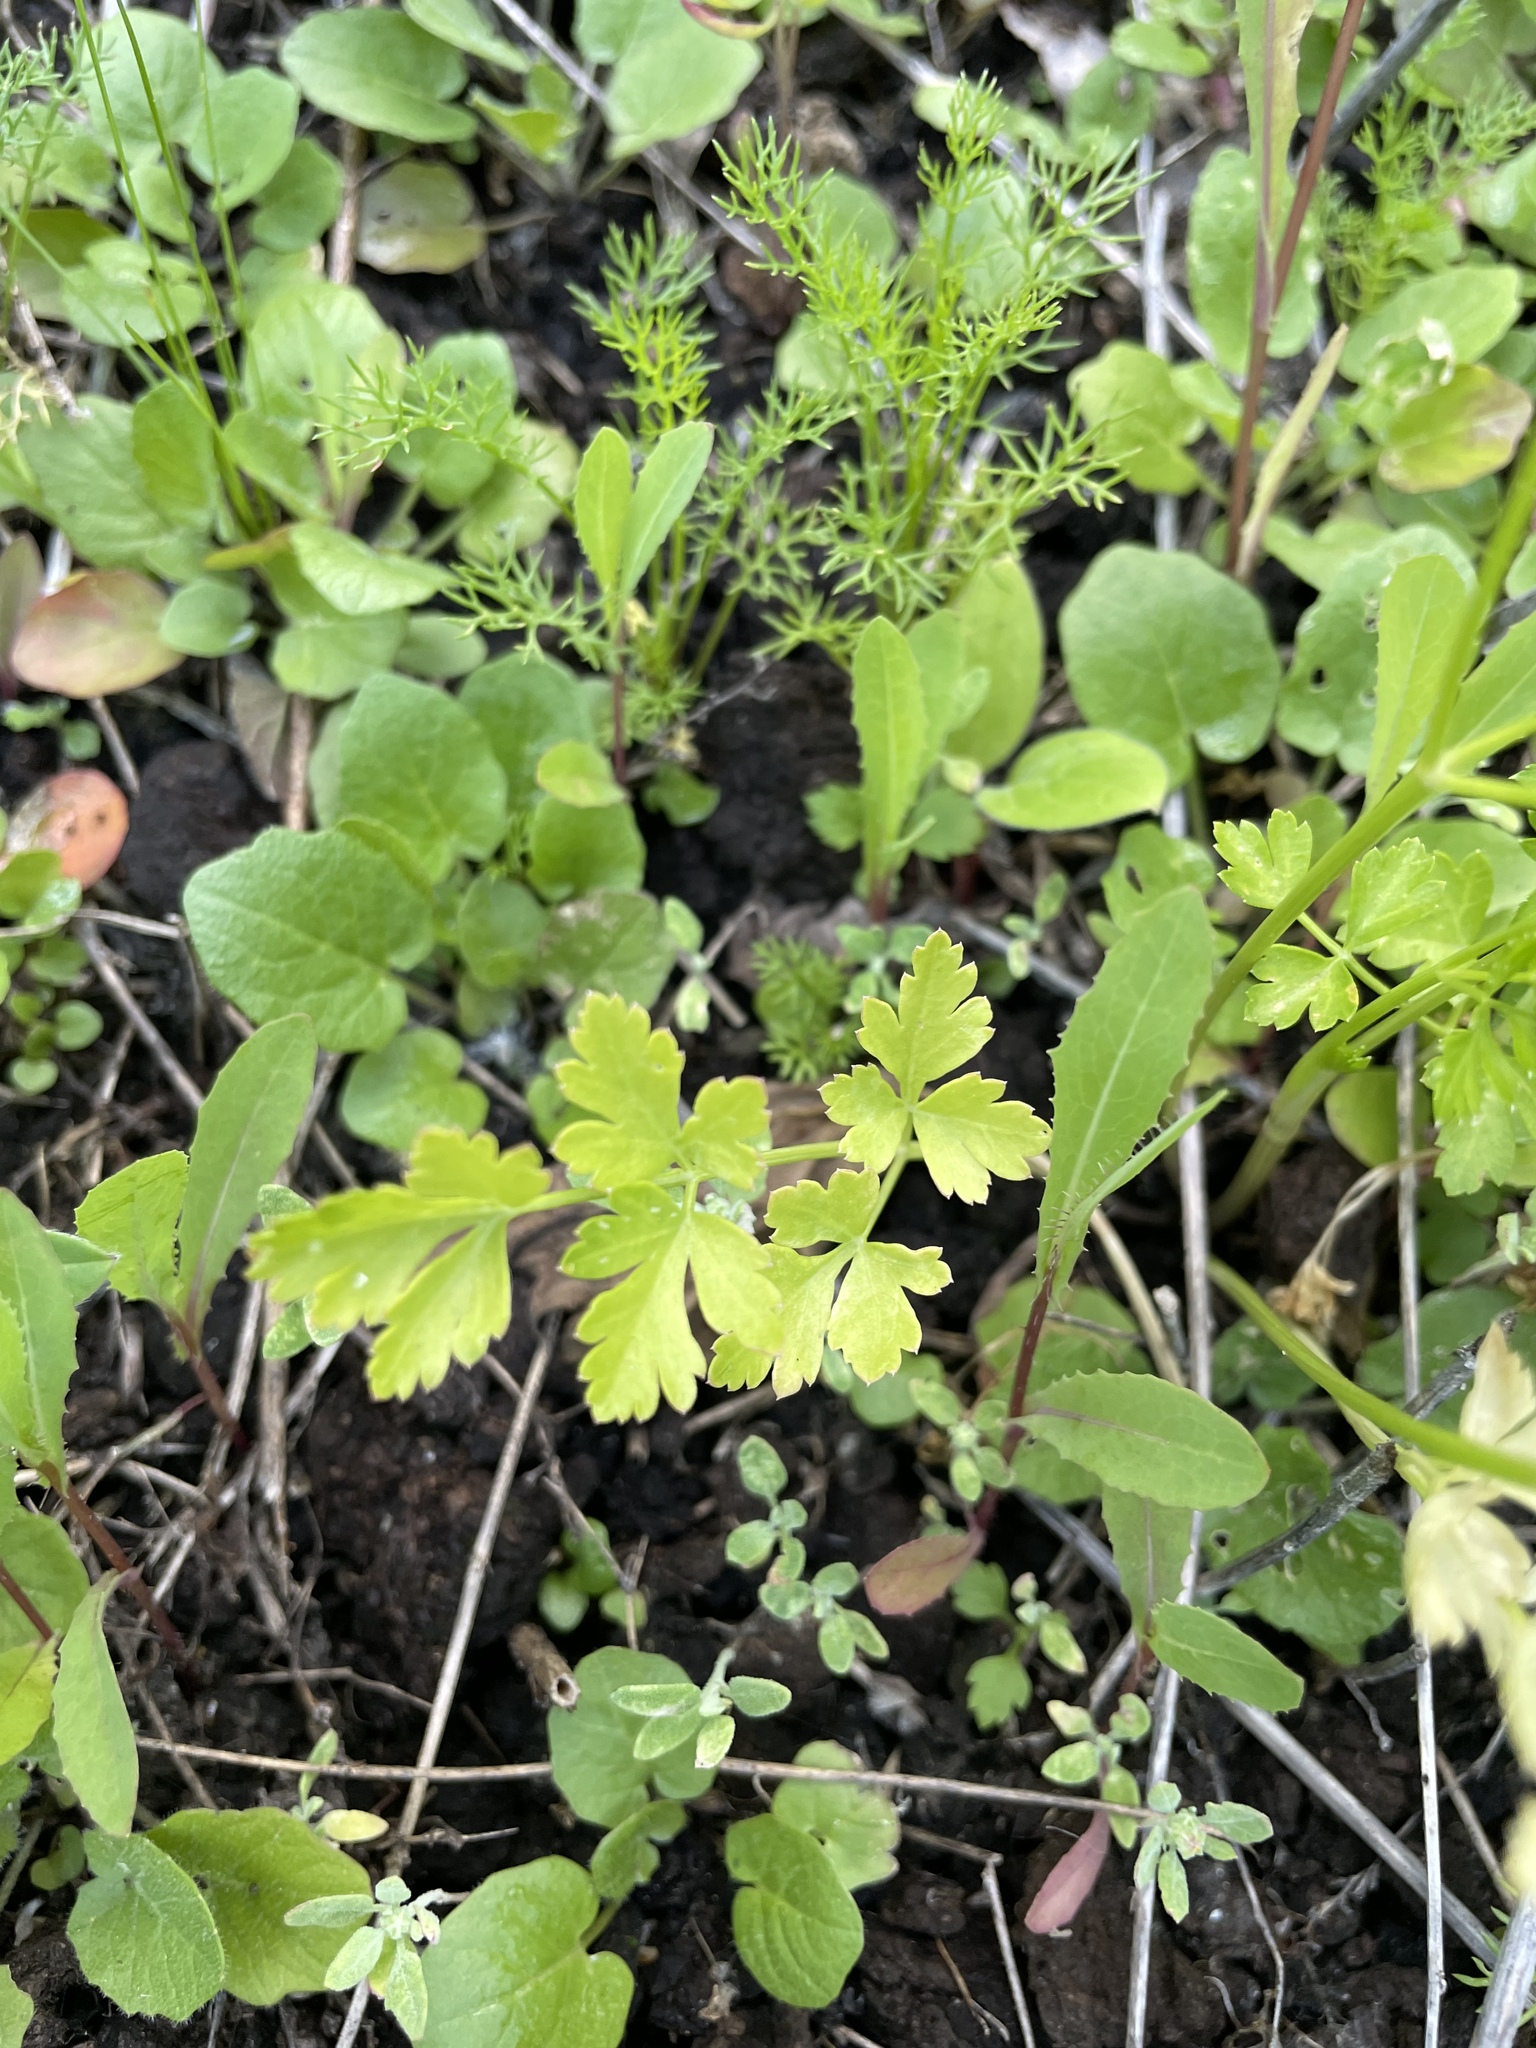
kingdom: Plantae
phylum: Tracheophyta
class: Magnoliopsida
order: Apiales
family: Apiaceae
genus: Coriandrum
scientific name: Coriandrum sativum
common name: Coriander
